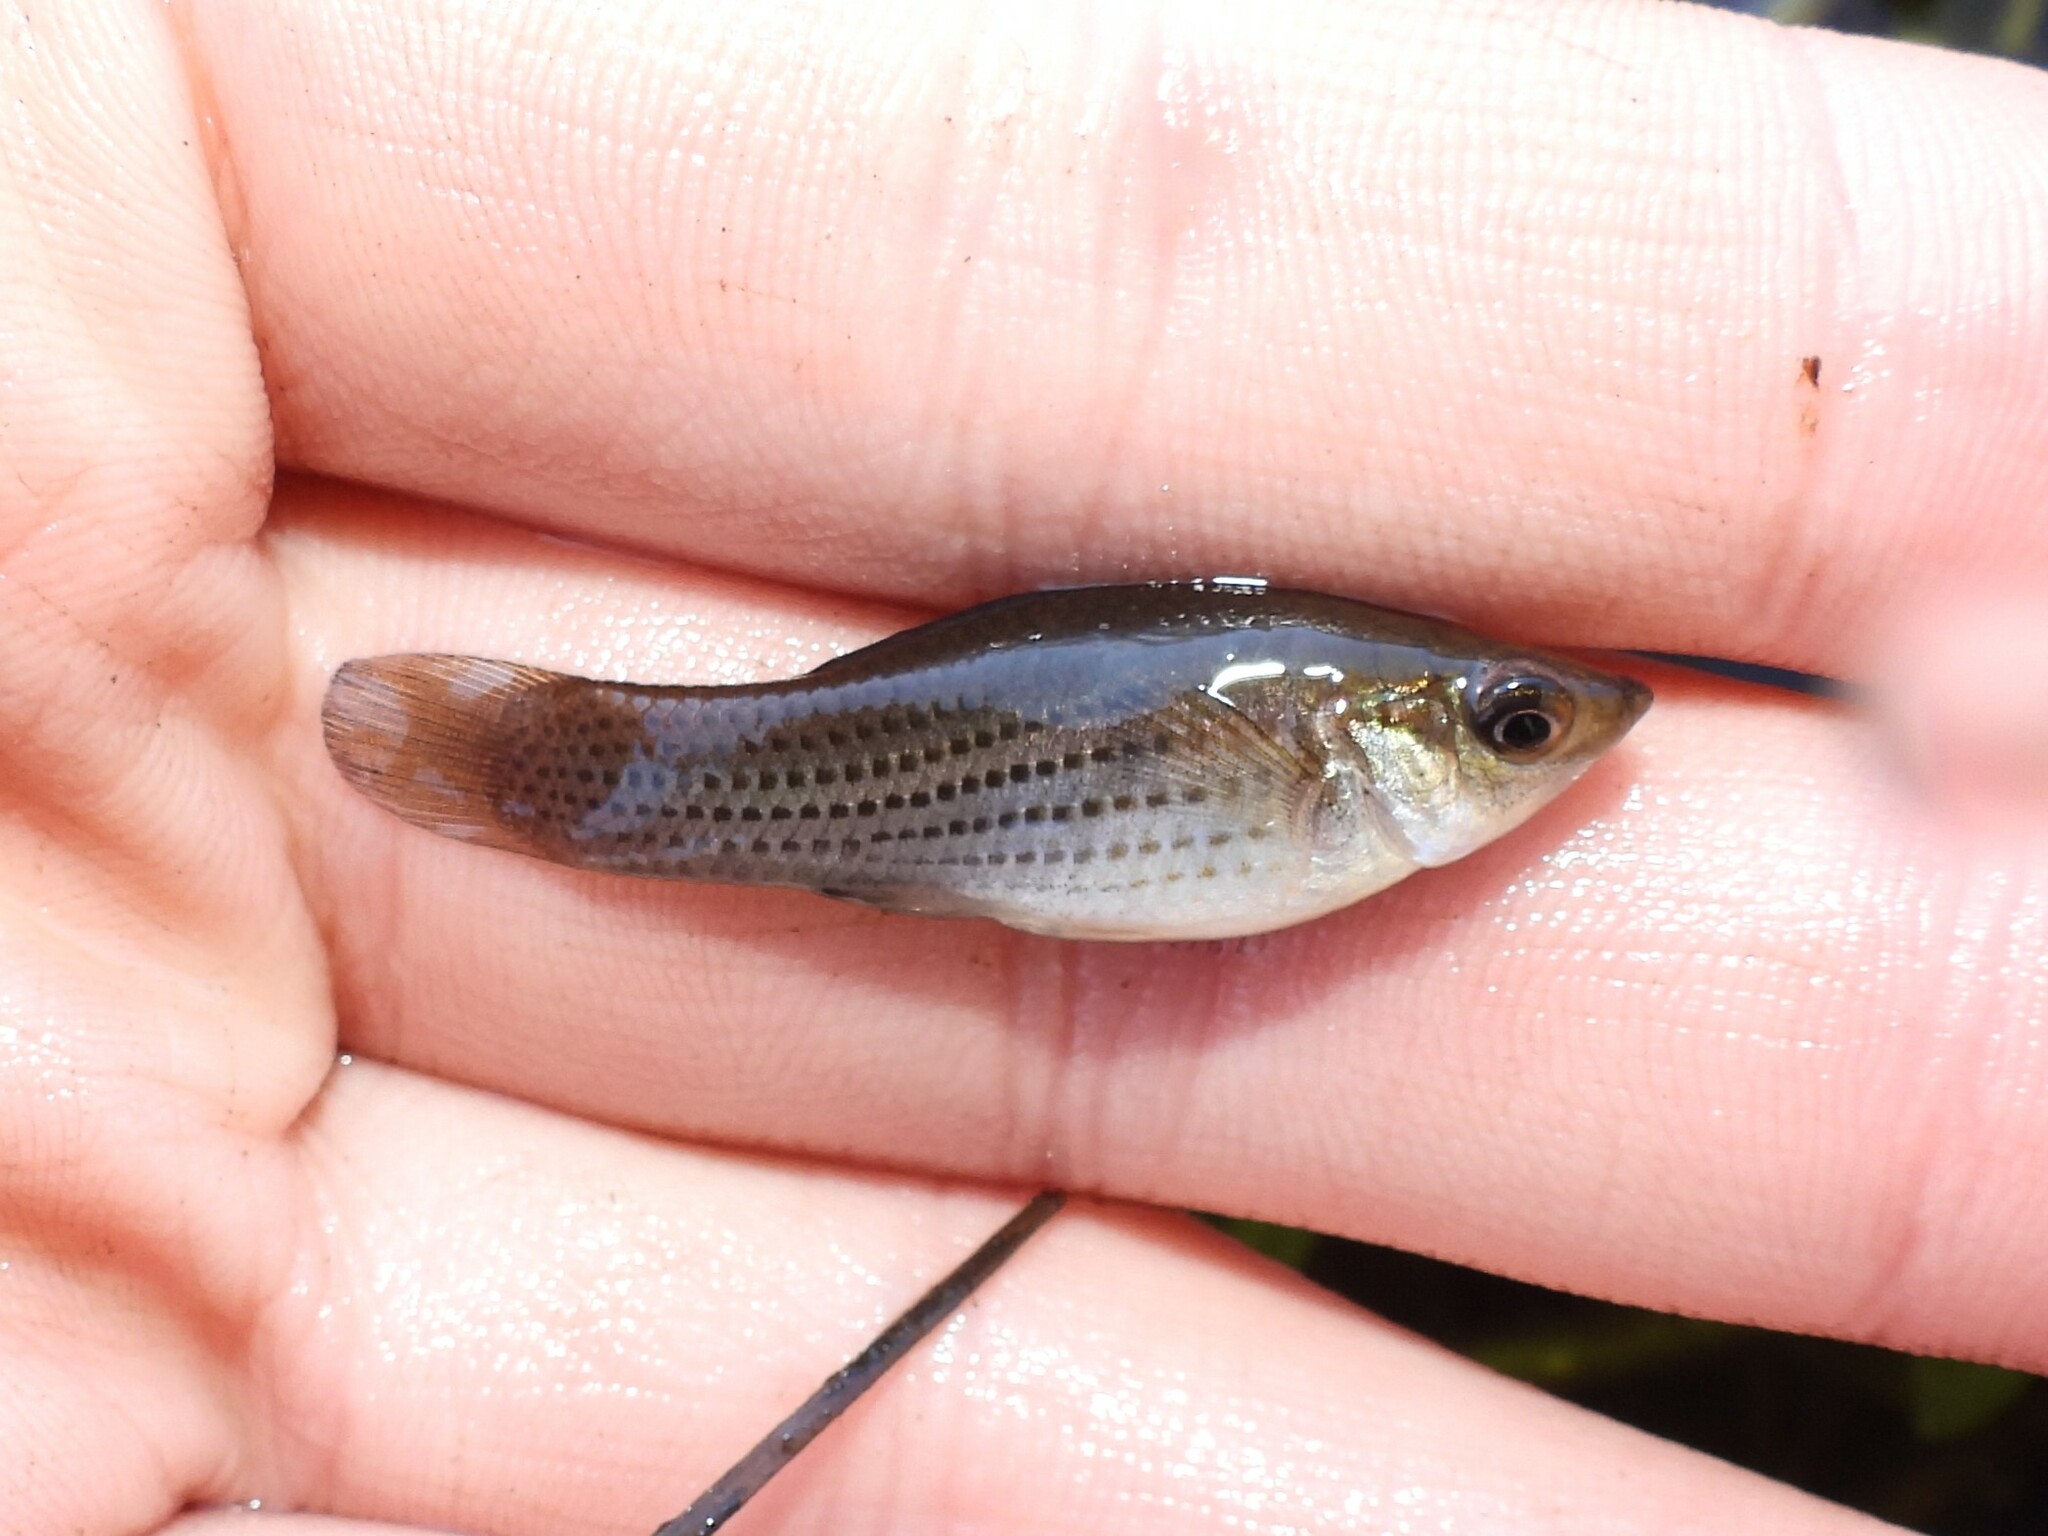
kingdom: Animalia
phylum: Chordata
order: Cyprinodontiformes
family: Poeciliidae
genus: Poecilia
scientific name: Poecilia latipinna
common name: Sailfin molly
